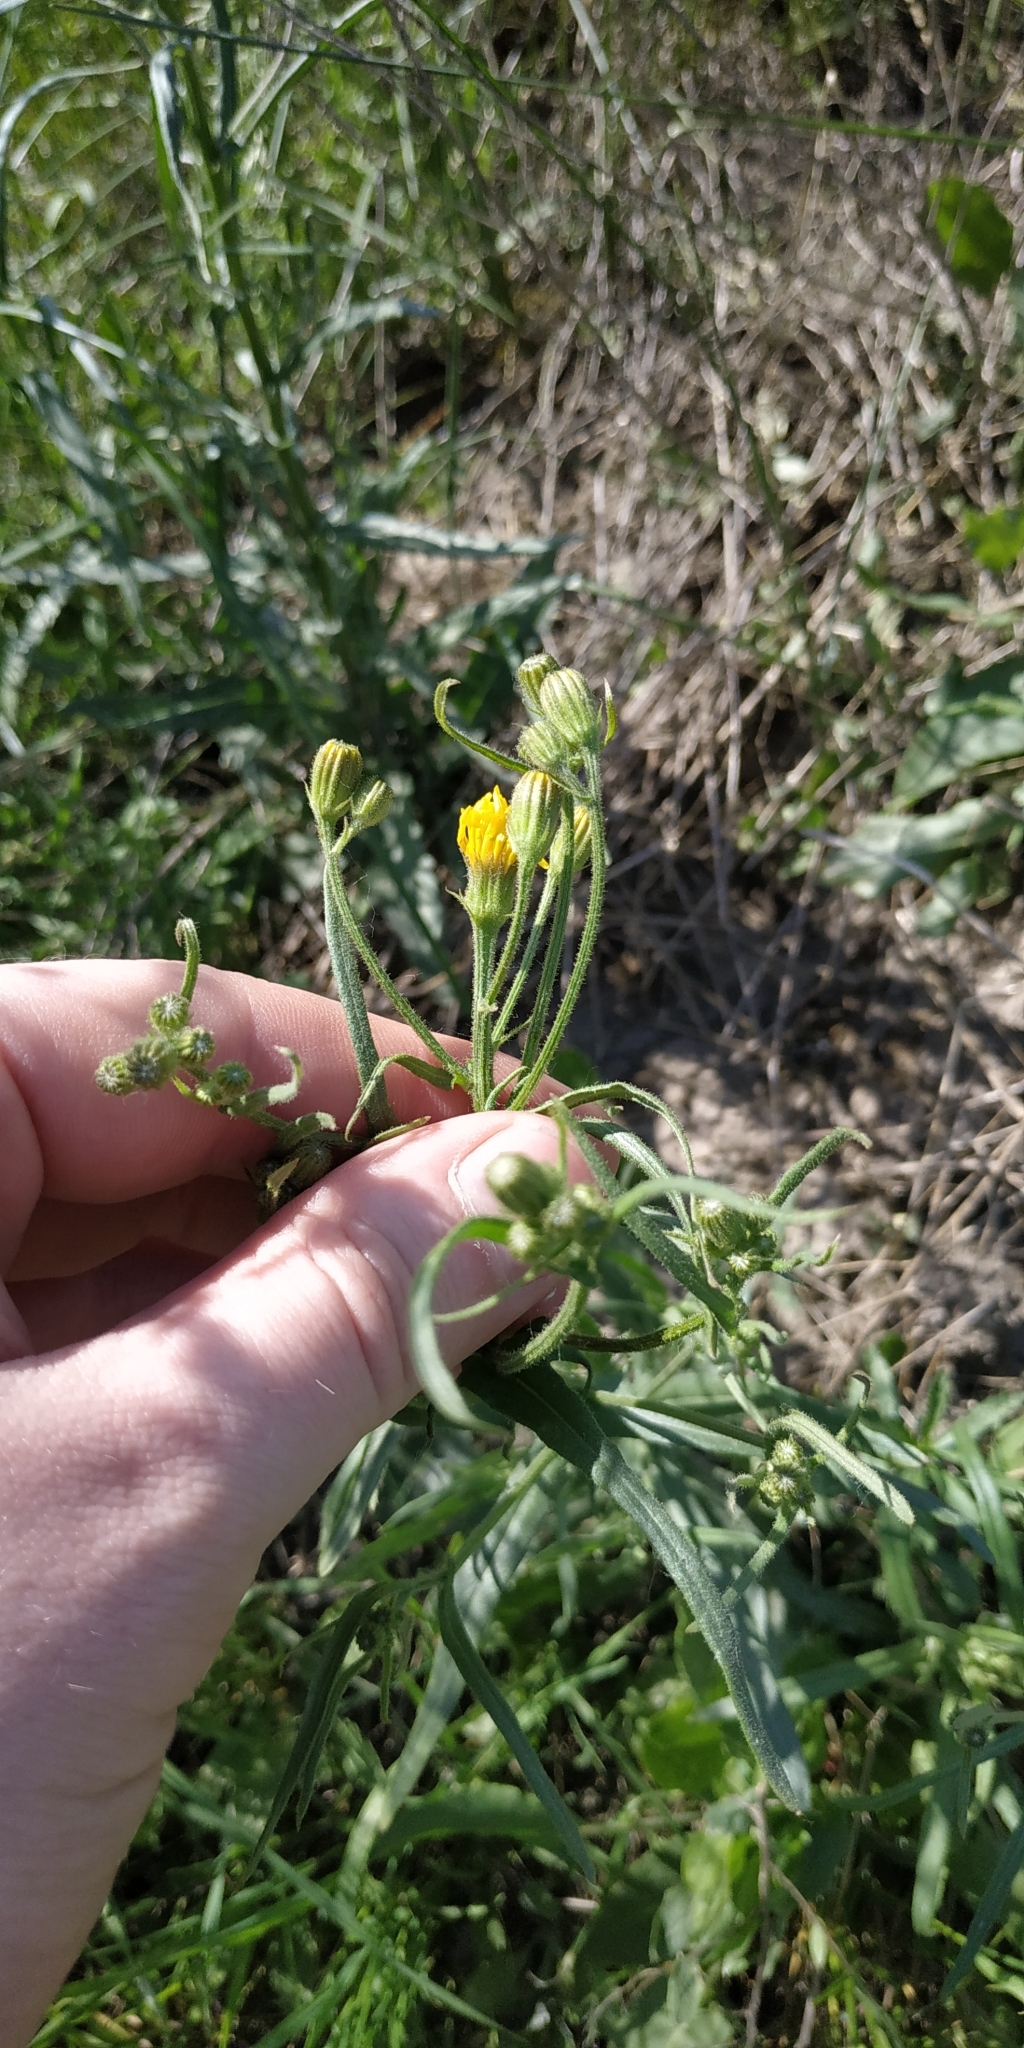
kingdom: Plantae
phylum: Tracheophyta
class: Magnoliopsida
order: Asterales
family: Asteraceae
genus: Crepis
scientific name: Crepis tectorum
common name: Narrow-leaved hawk's-beard
